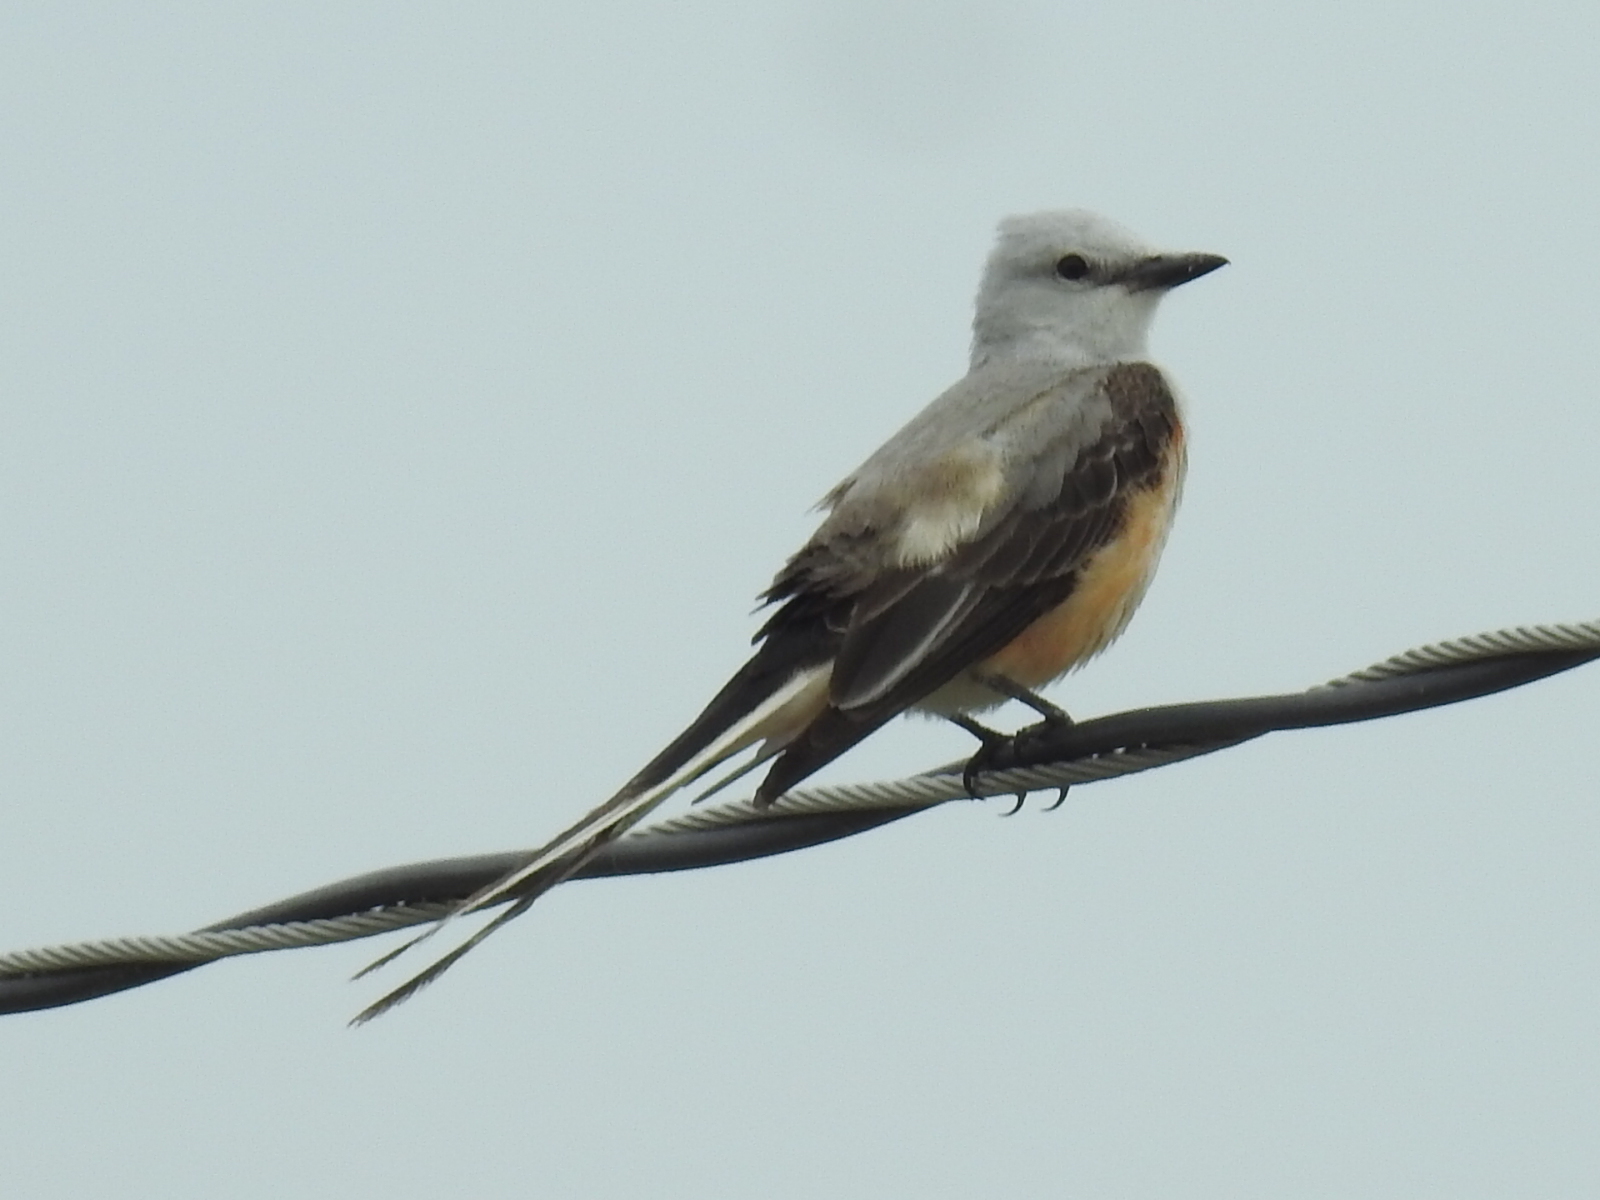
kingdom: Animalia
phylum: Chordata
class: Aves
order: Passeriformes
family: Tyrannidae
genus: Tyrannus
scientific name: Tyrannus forficatus
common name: Scissor-tailed flycatcher
